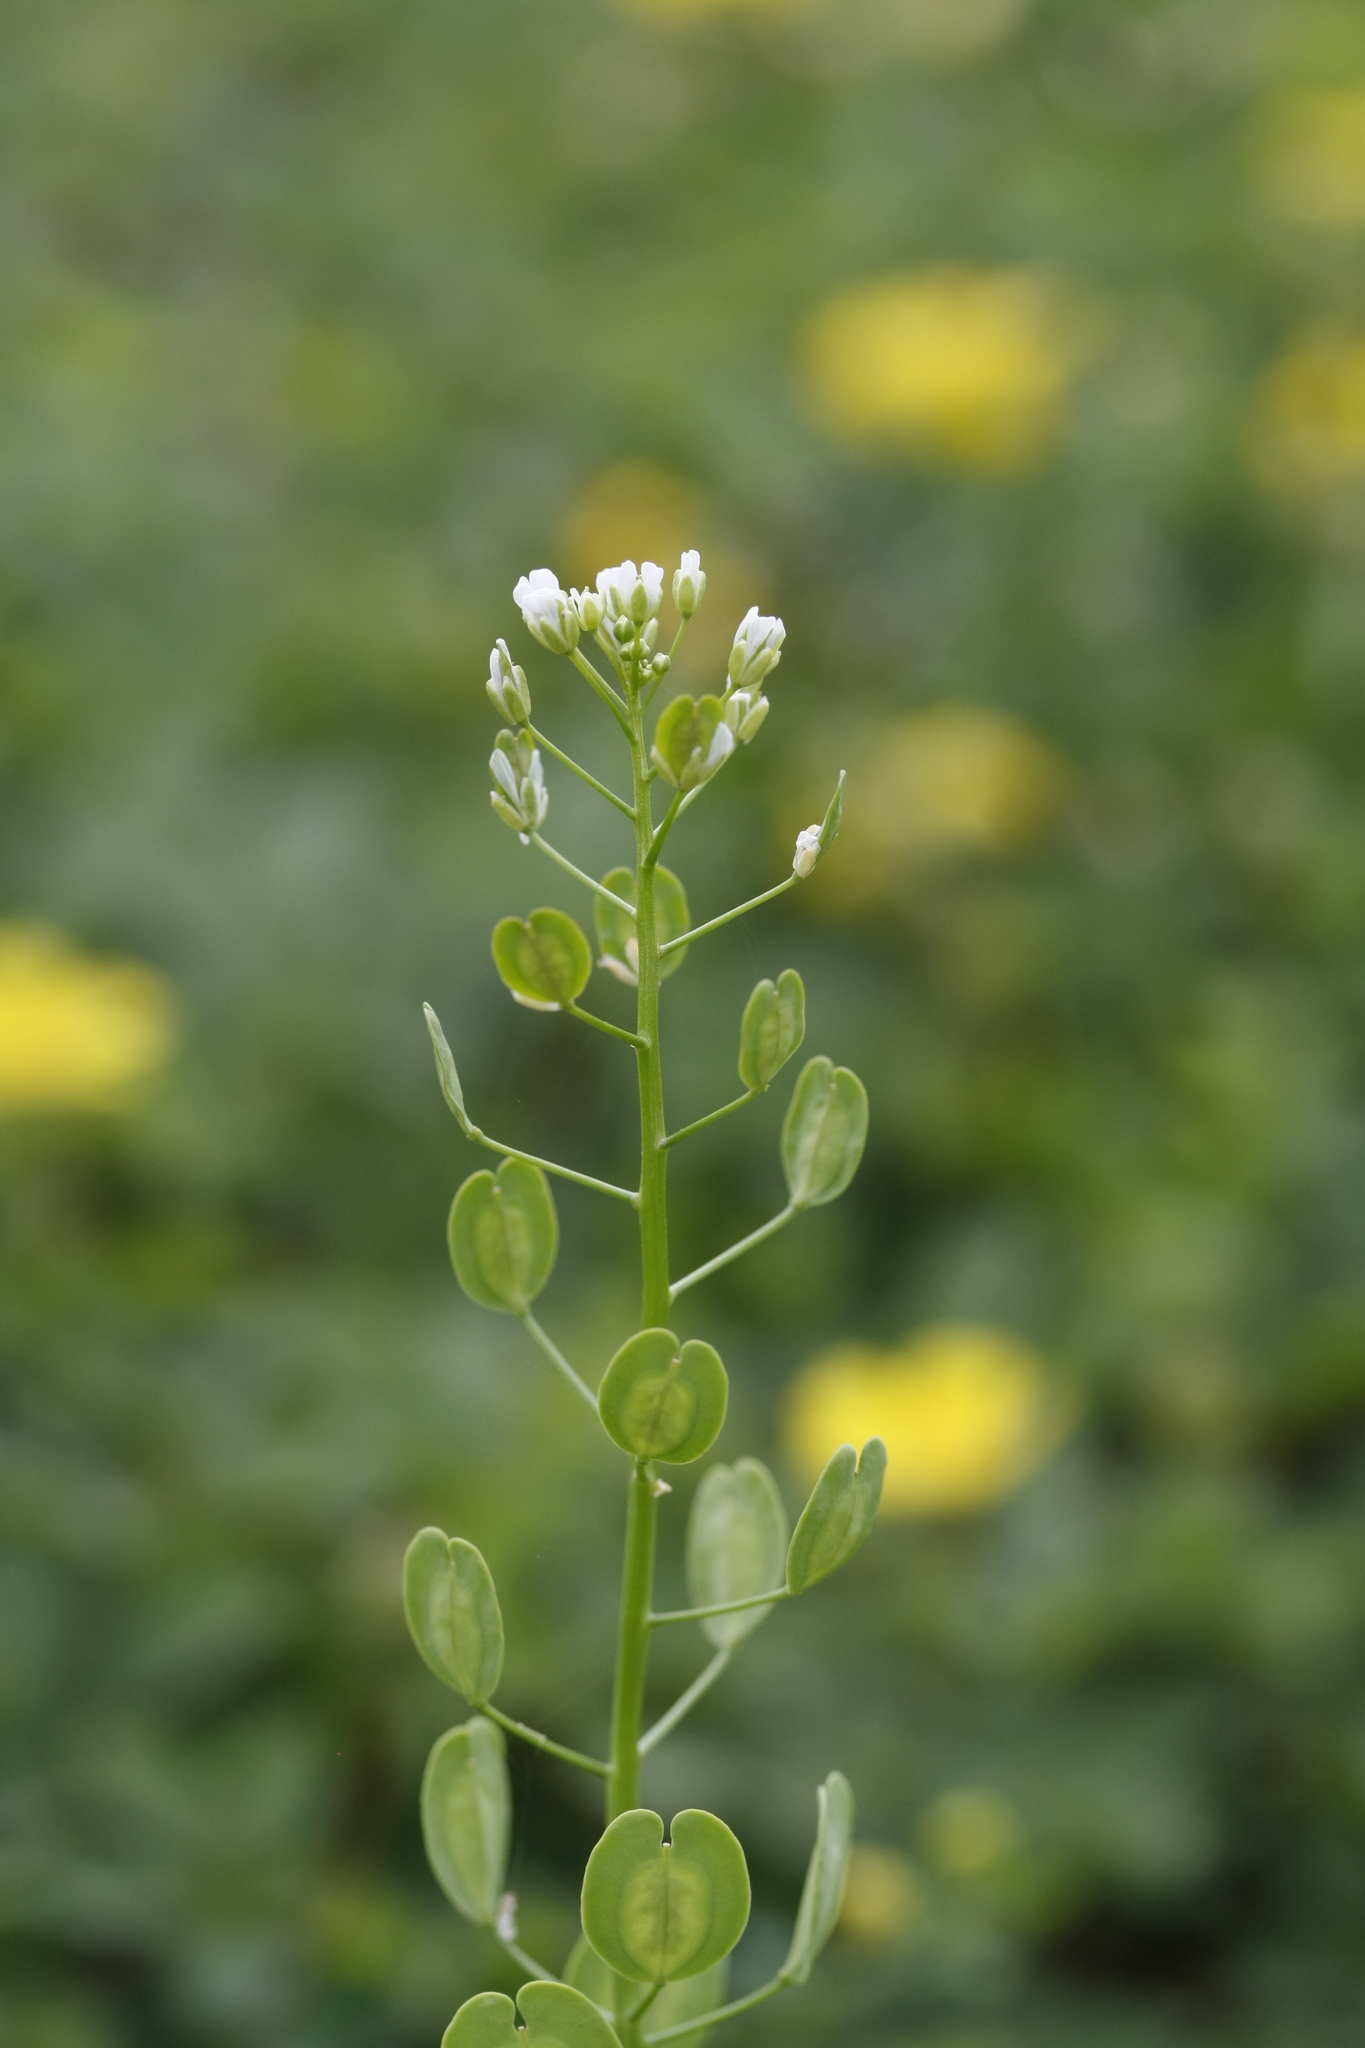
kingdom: Plantae
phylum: Tracheophyta
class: Magnoliopsida
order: Brassicales
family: Brassicaceae
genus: Thlaspi
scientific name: Thlaspi arvense
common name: Field pennycress
